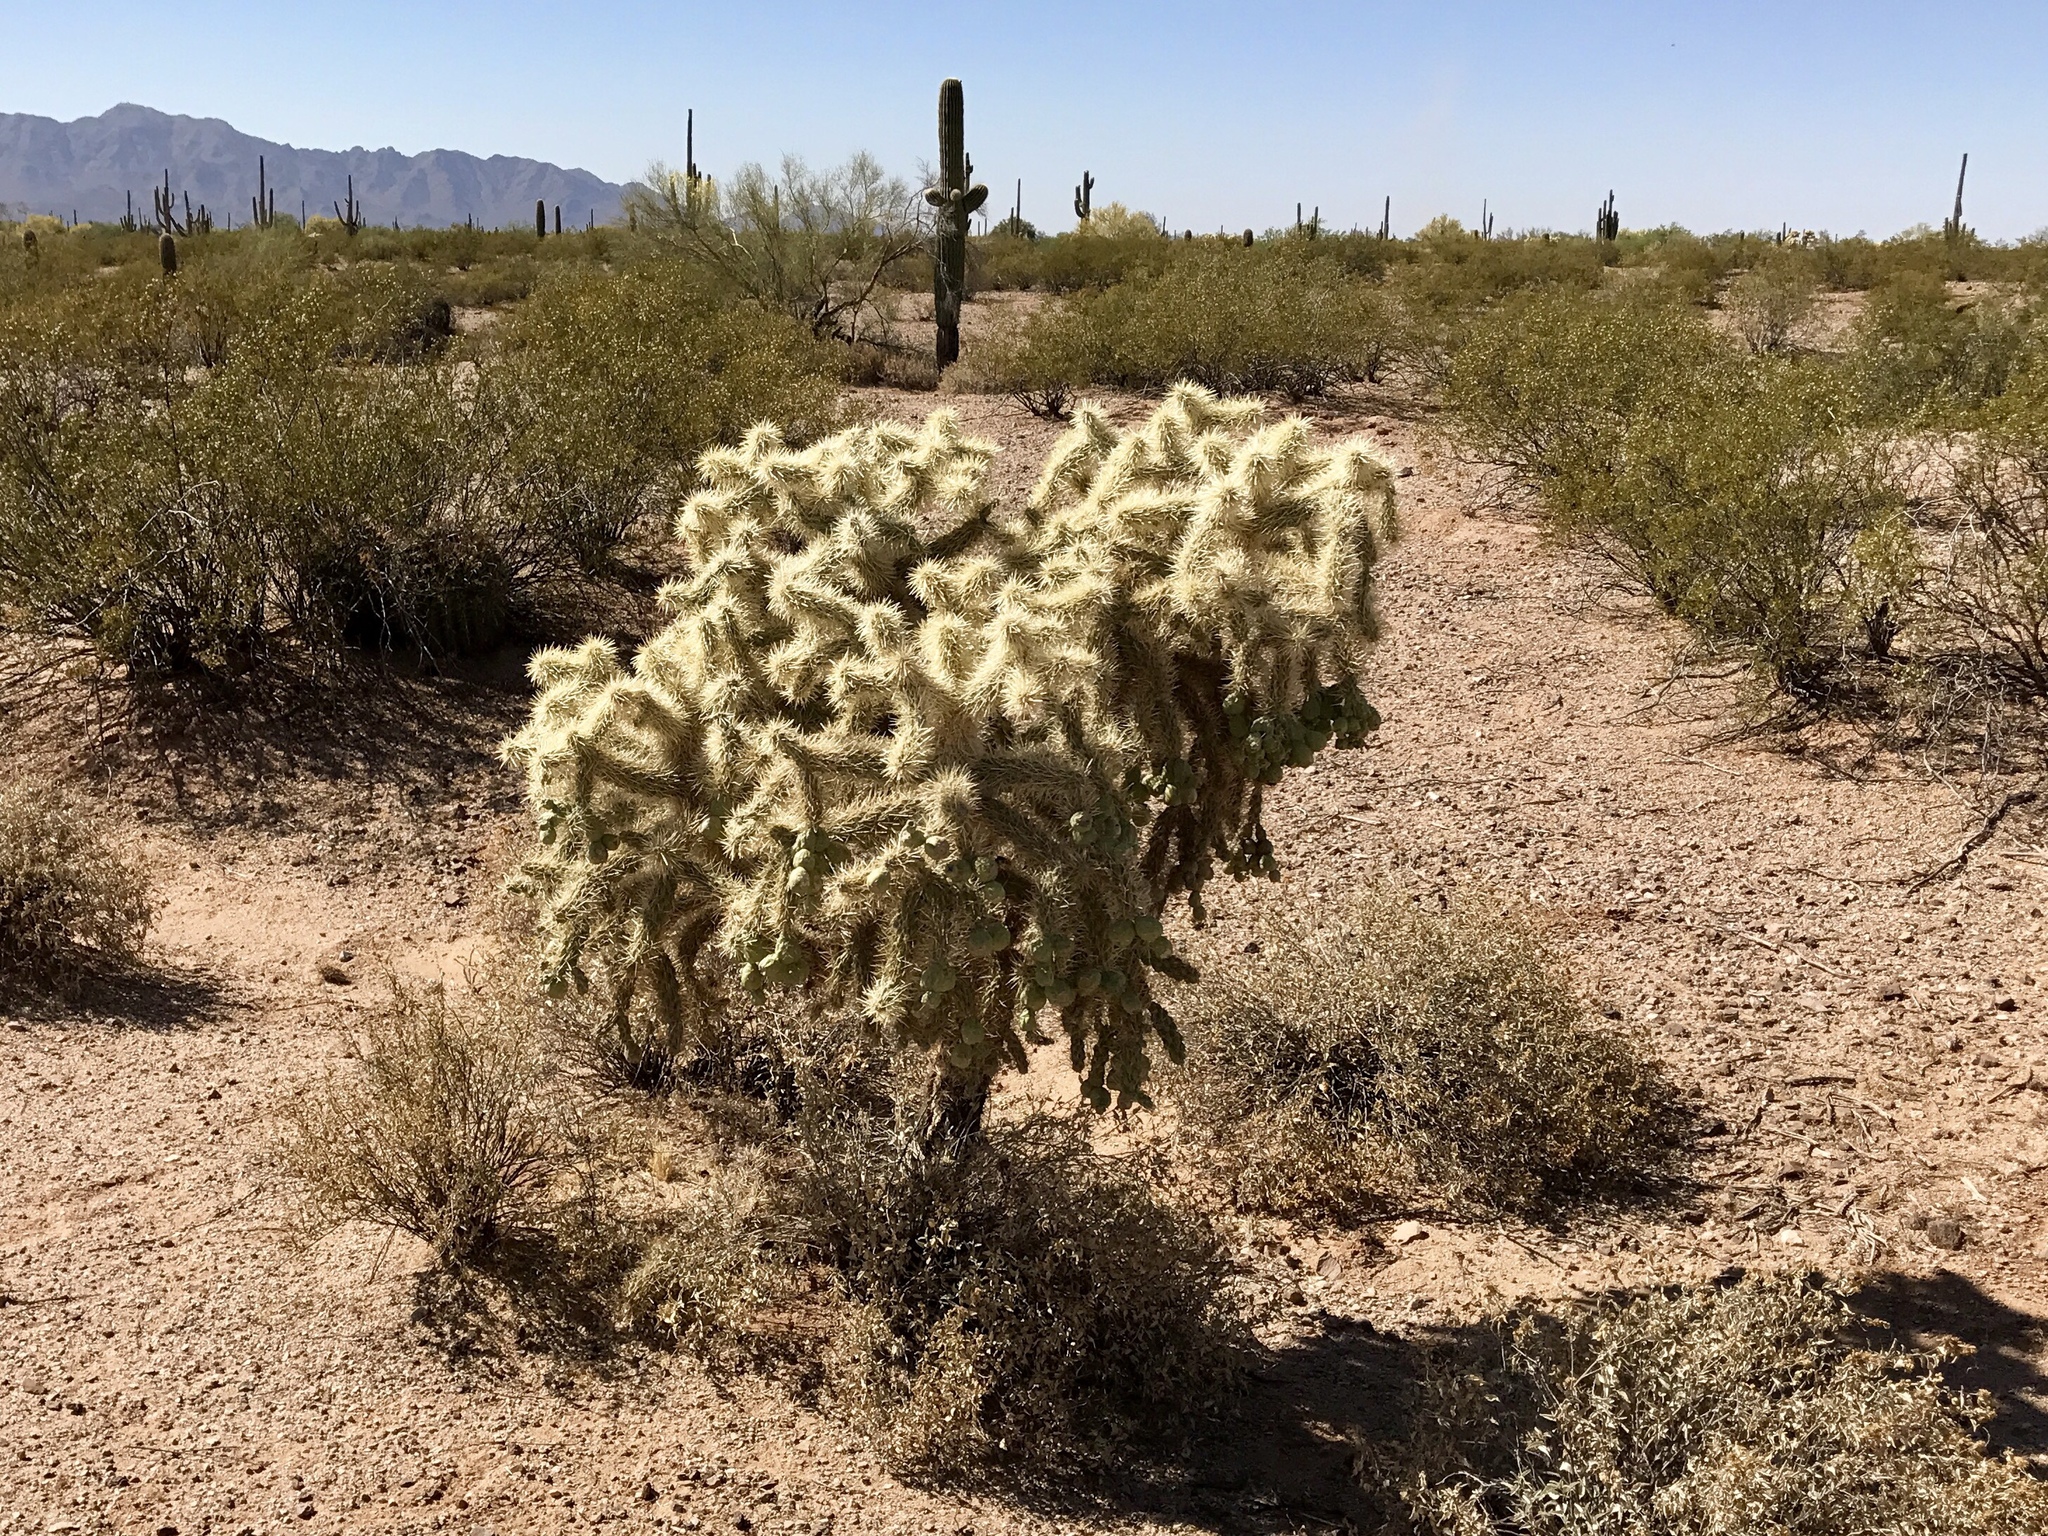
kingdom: Plantae
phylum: Tracheophyta
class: Magnoliopsida
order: Caryophyllales
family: Cactaceae
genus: Cylindropuntia
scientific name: Cylindropuntia fulgida
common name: Jumping cholla
